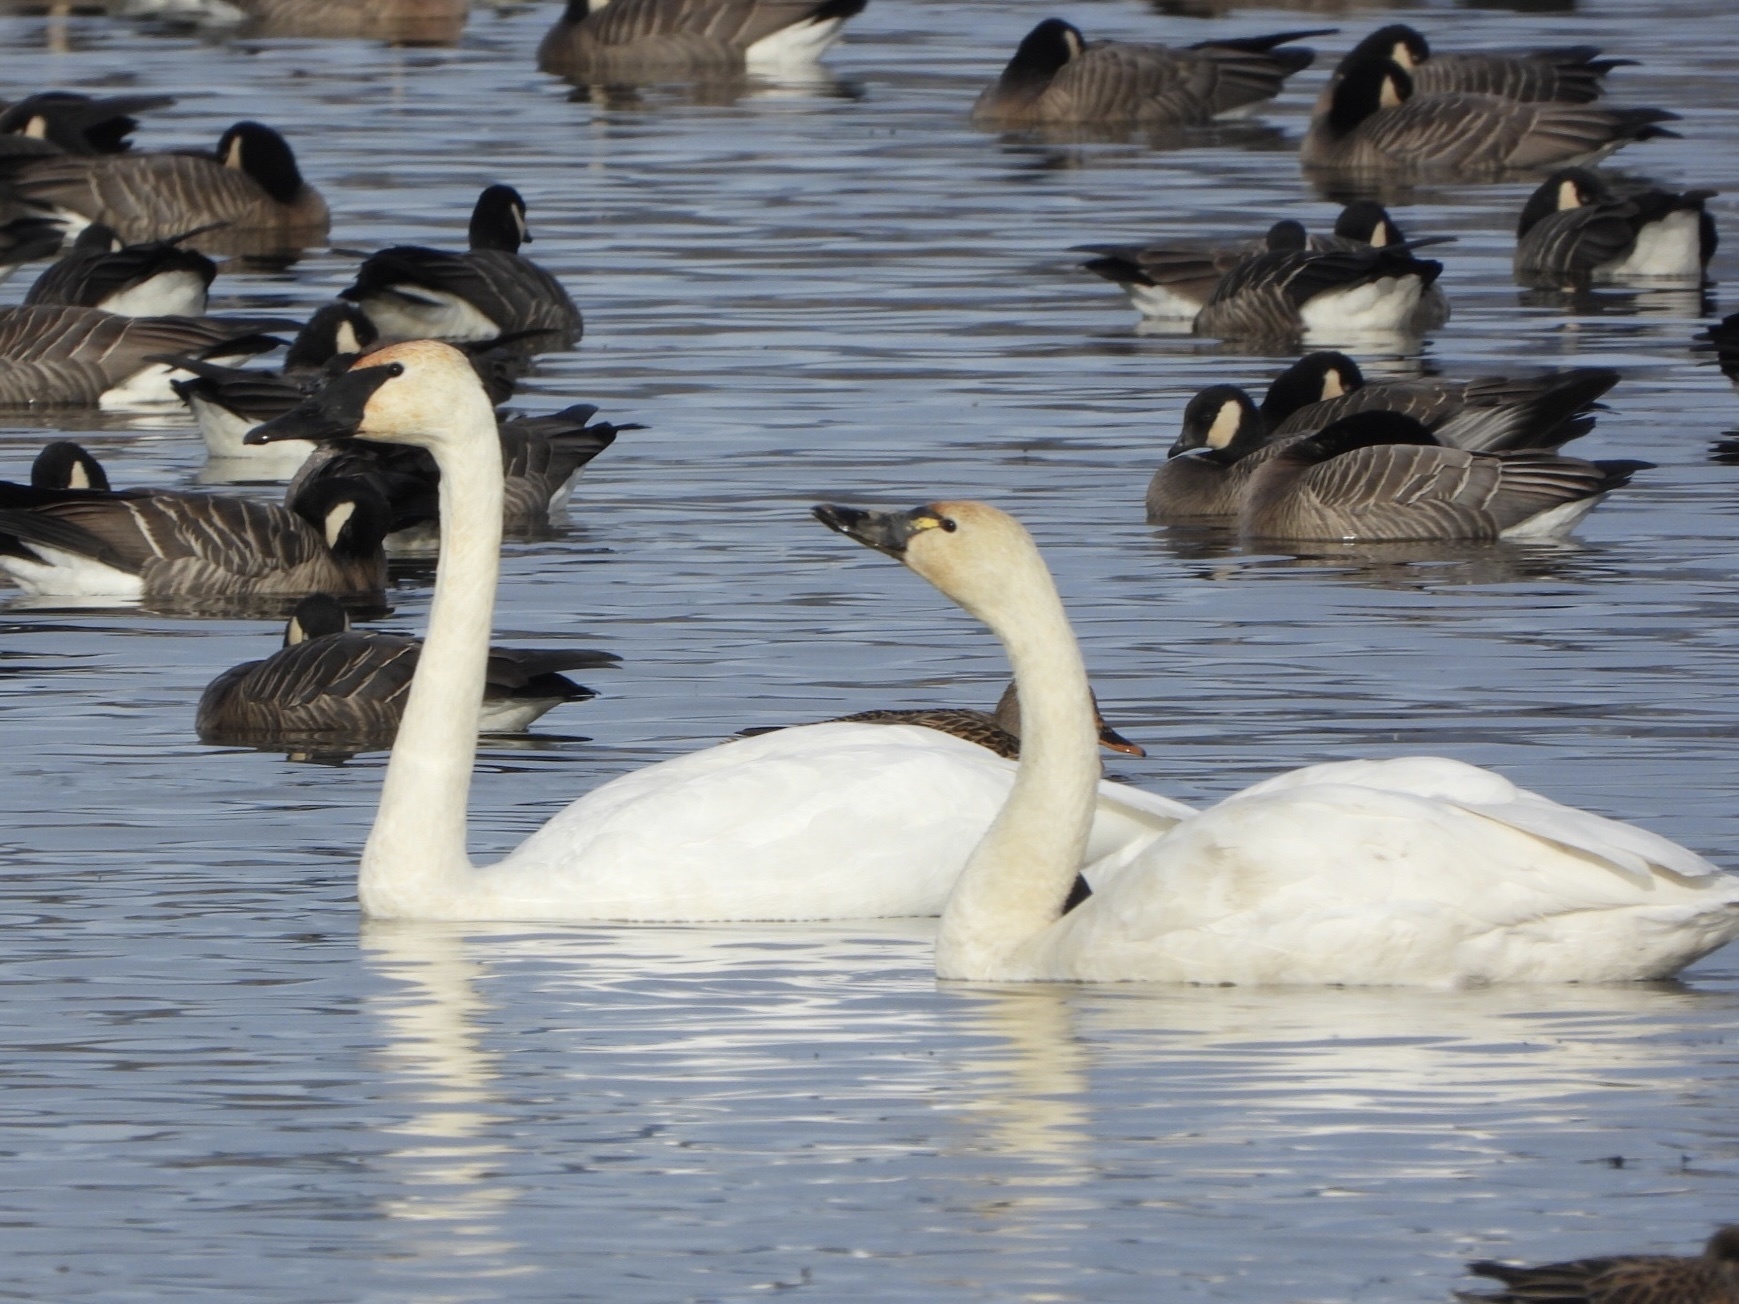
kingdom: Animalia
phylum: Chordata
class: Aves
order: Anseriformes
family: Anatidae
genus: Cygnus
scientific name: Cygnus columbianus
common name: Tundra swan
